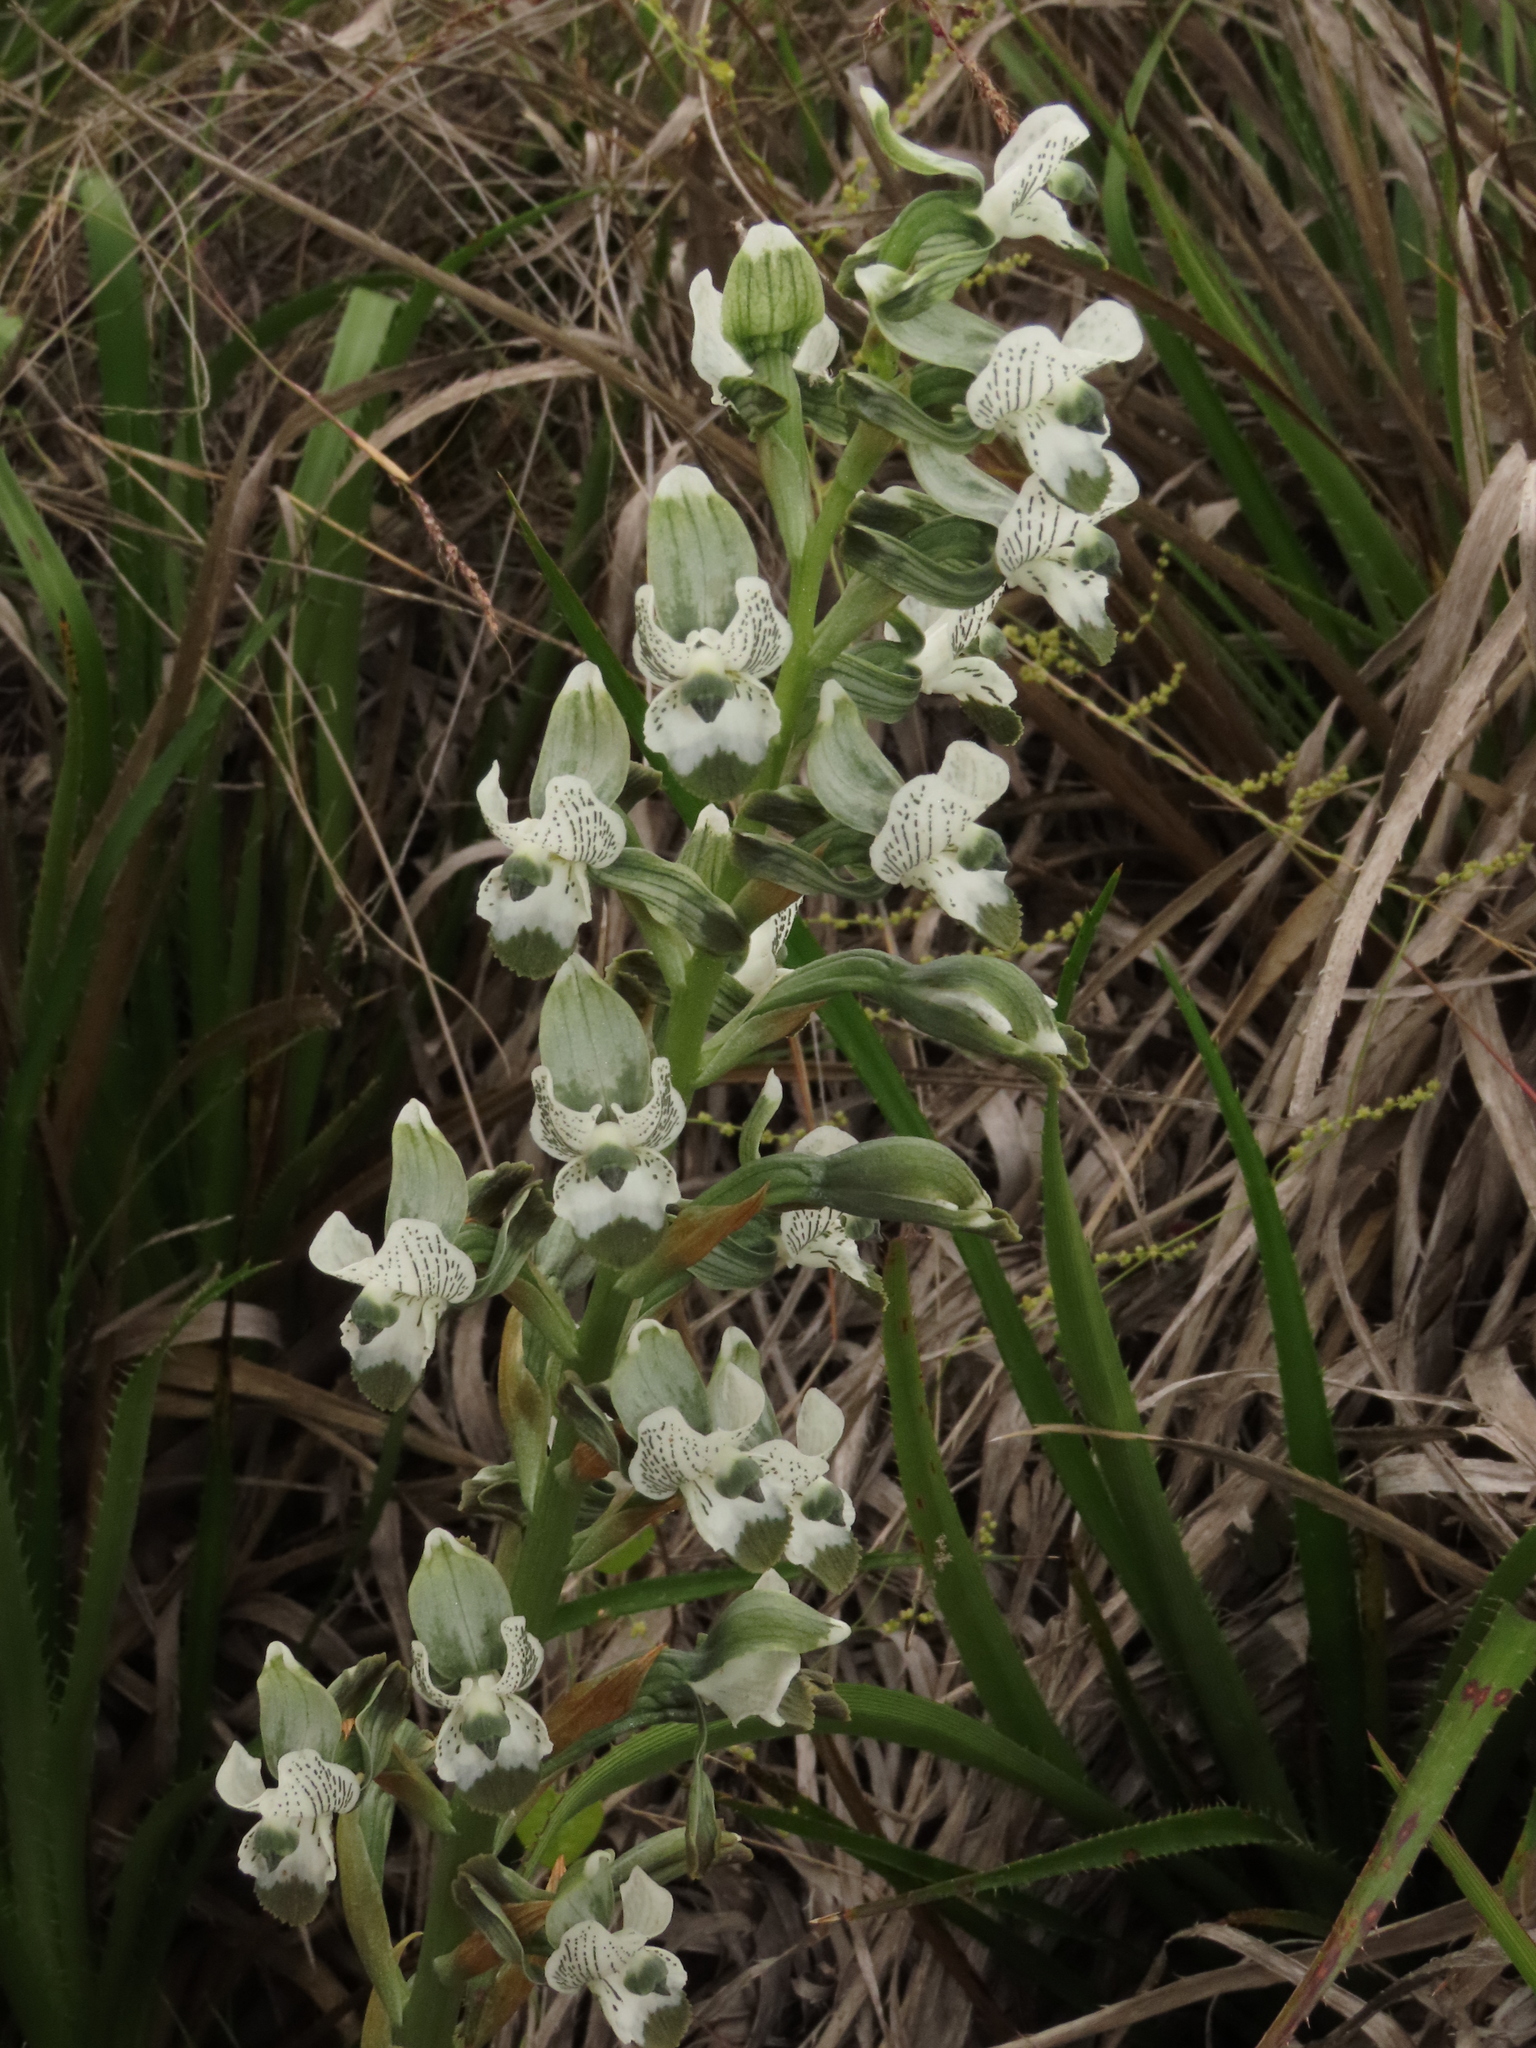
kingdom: Plantae
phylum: Tracheophyta
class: Liliopsida
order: Asparagales
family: Orchidaceae
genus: Chloraea
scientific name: Chloraea galeata
